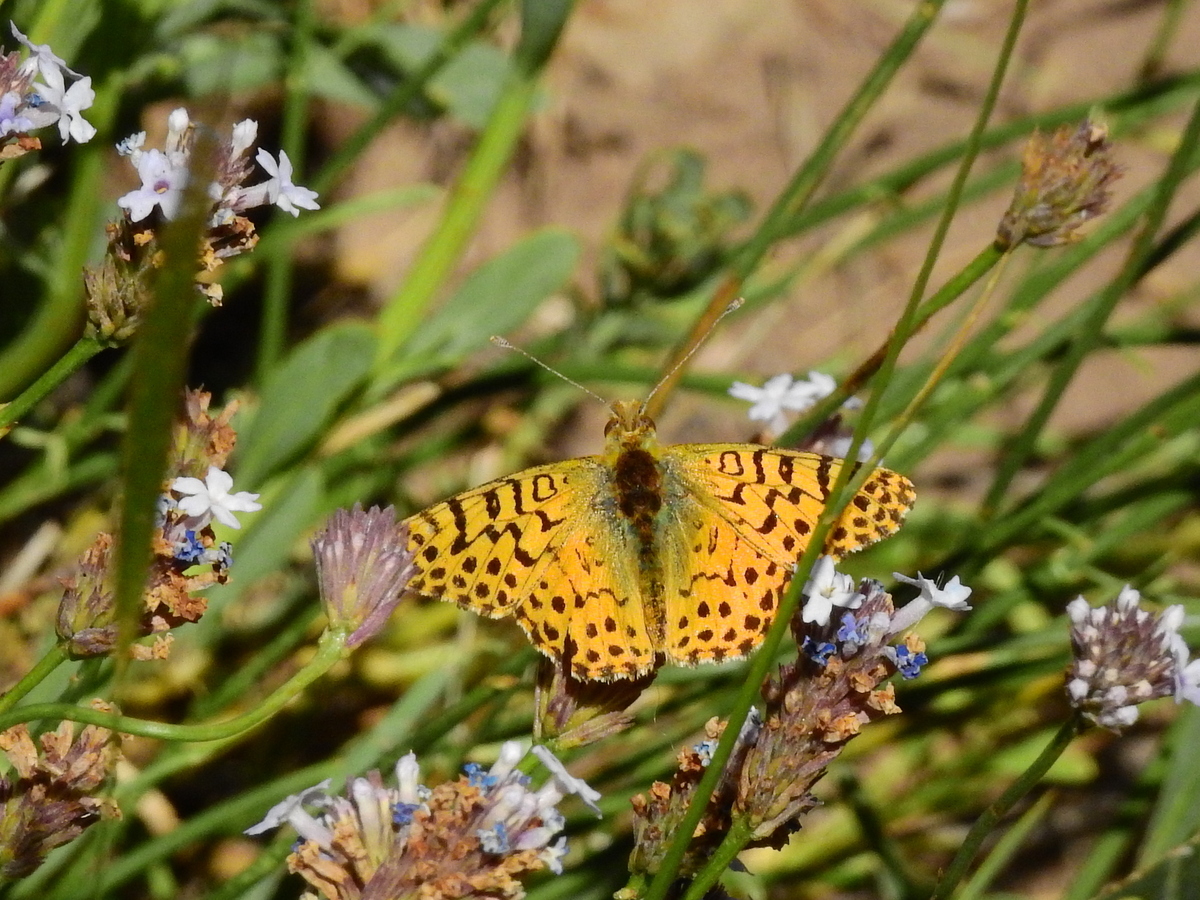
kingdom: Animalia
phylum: Arthropoda
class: Insecta
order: Lepidoptera
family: Nymphalidae
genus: Issoria
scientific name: Issoria Yramea lathonoides
